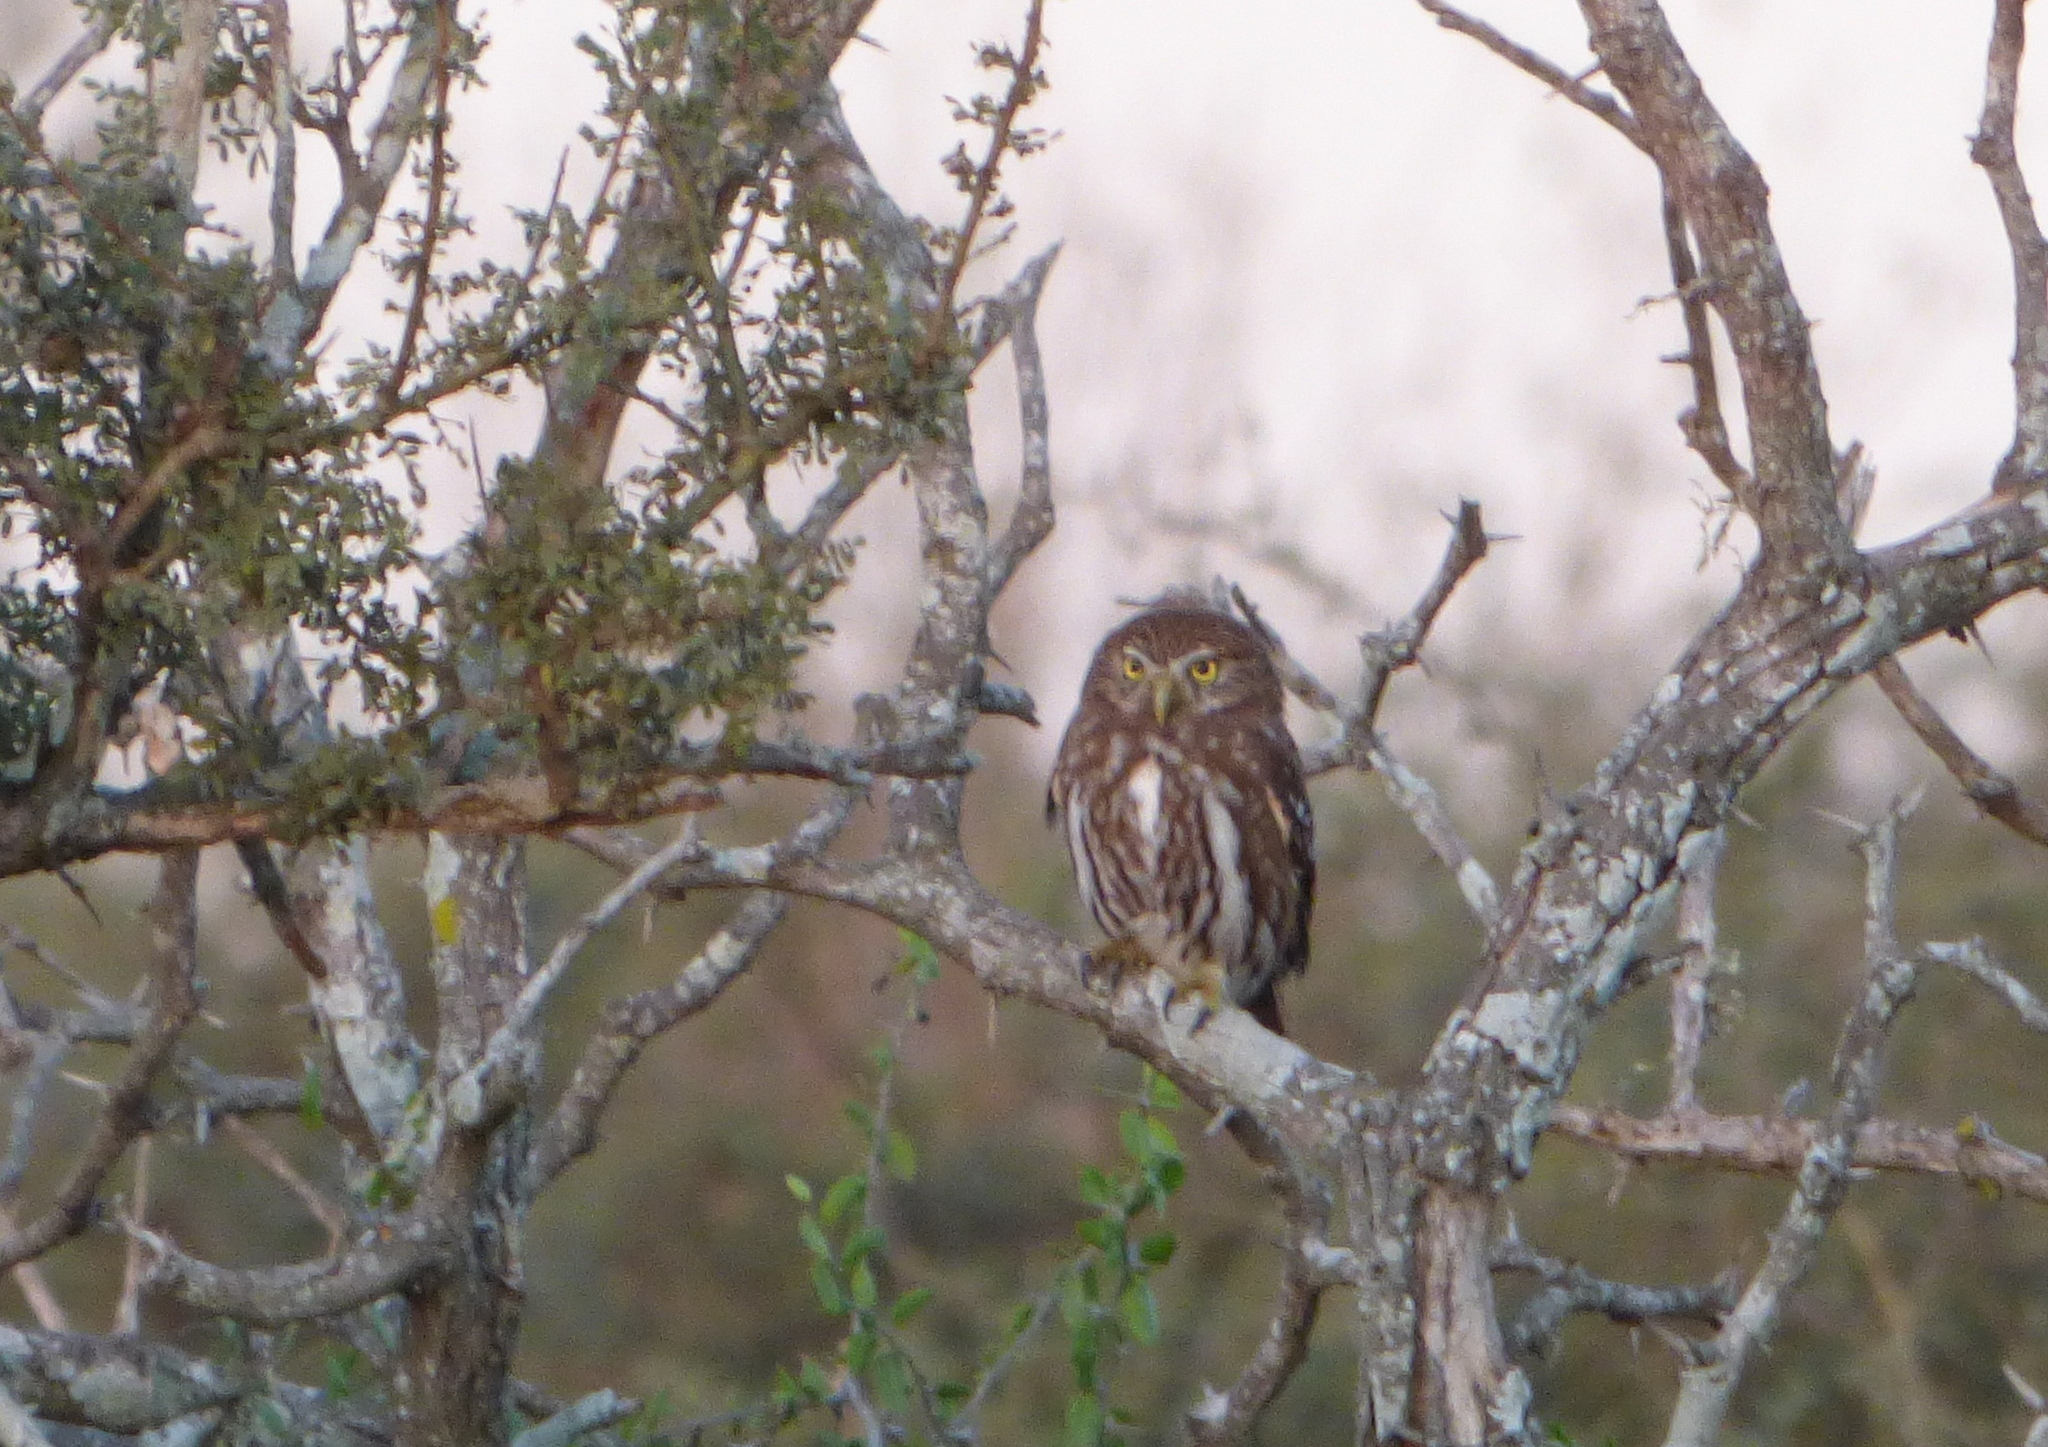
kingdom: Animalia
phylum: Chordata
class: Aves
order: Strigiformes
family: Strigidae
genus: Glaucidium
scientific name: Glaucidium brasilianum
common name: Ferruginous pygmy-owl
